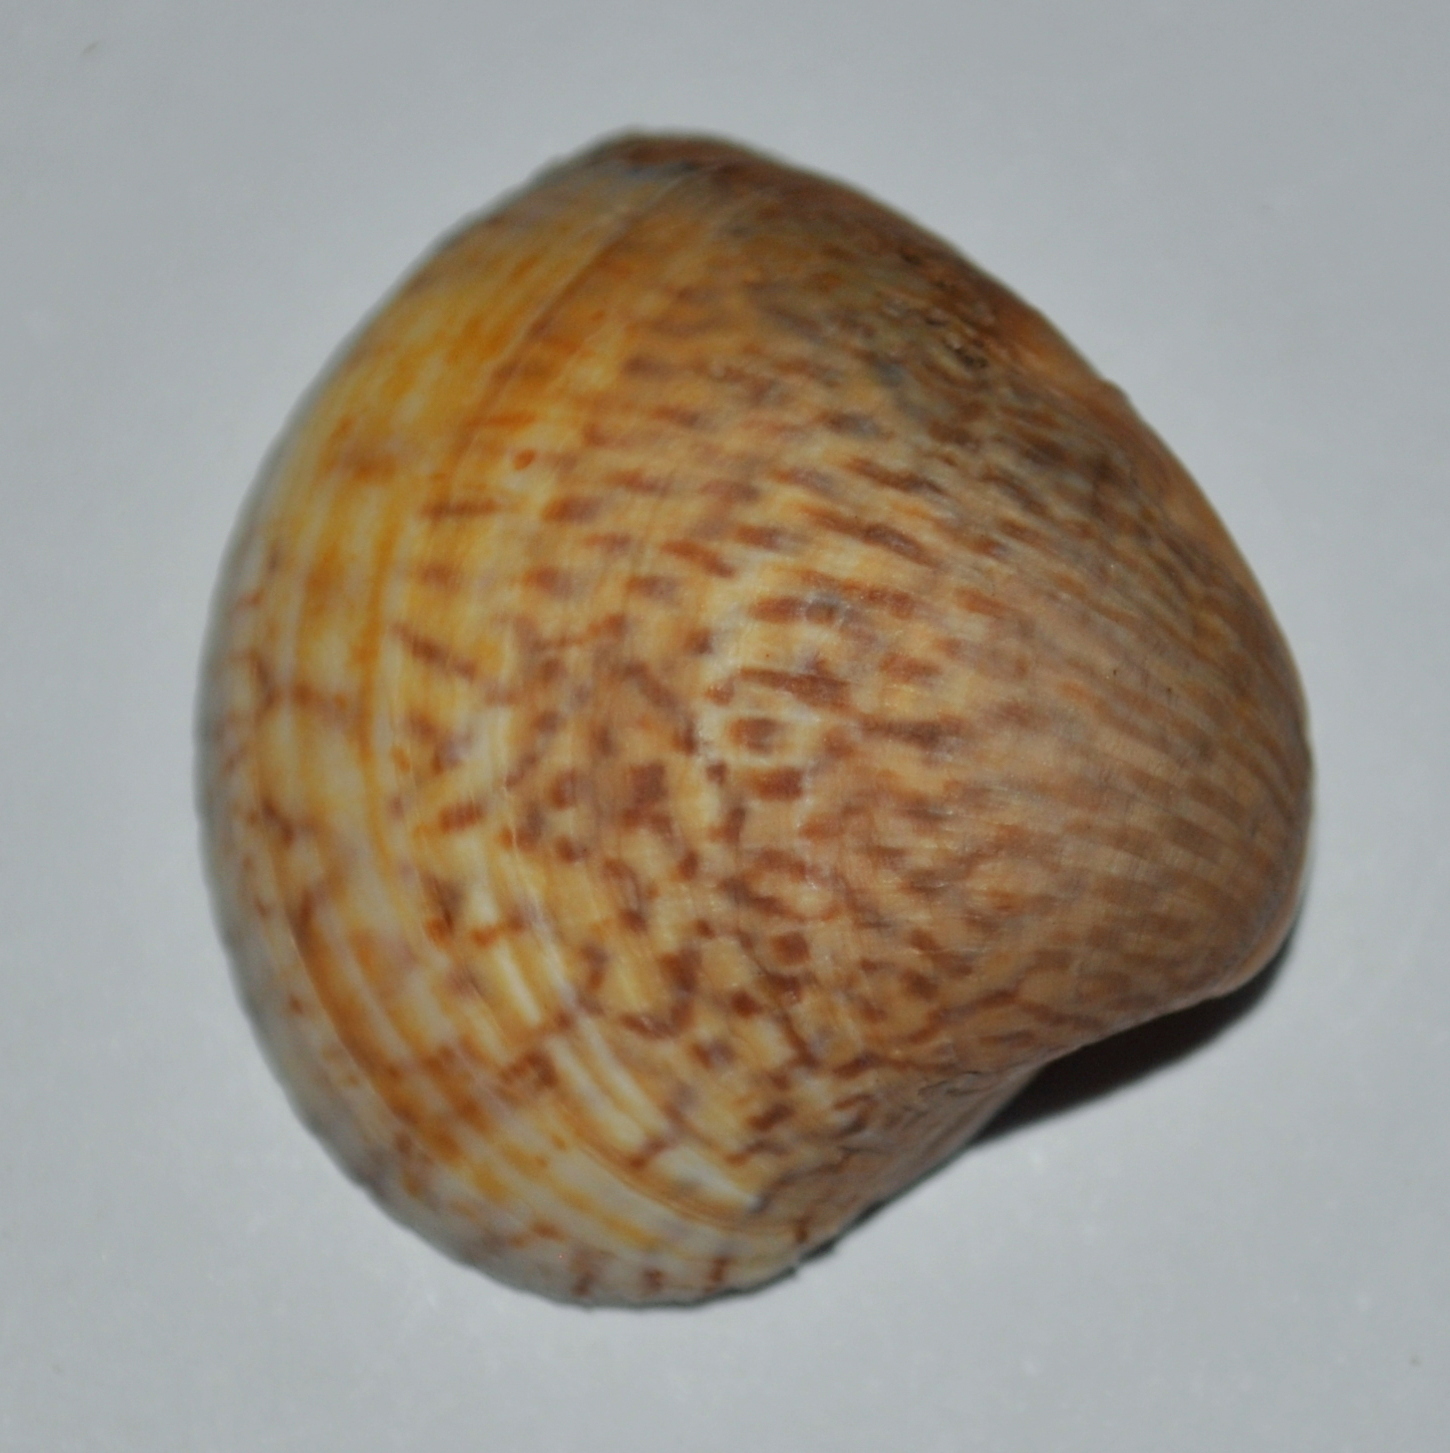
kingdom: Animalia
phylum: Mollusca
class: Bivalvia
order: Venerida
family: Veneridae
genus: Anomalocardia
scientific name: Anomalocardia flexuosa
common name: Carib pointed venus
